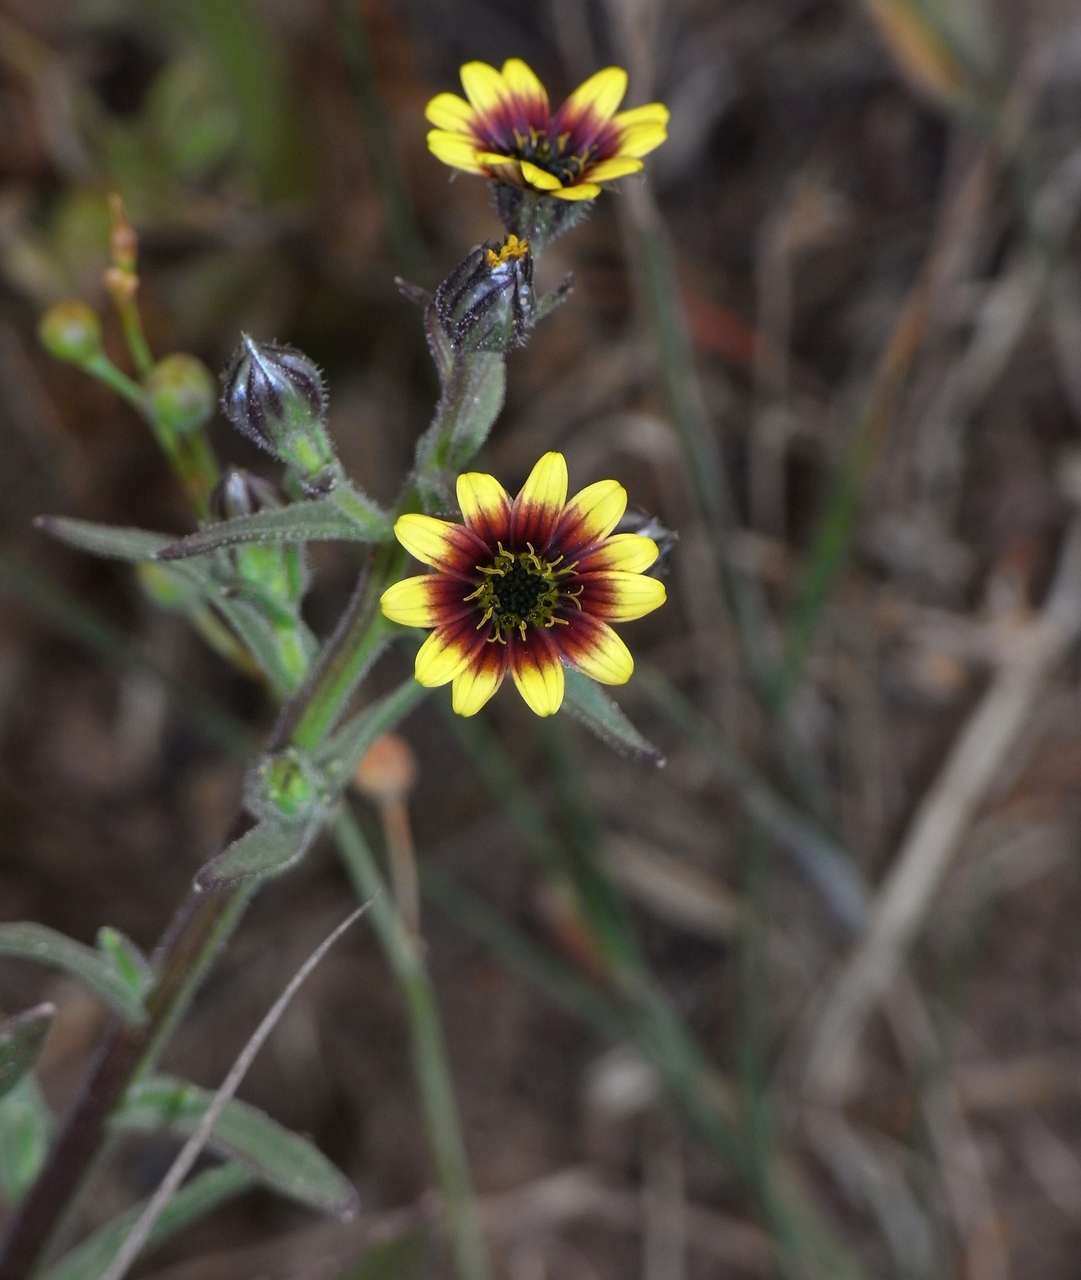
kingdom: Plantae
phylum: Tracheophyta
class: Magnoliopsida
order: Asterales
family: Asteraceae
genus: Osteospermum
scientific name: Osteospermum monstrosum
